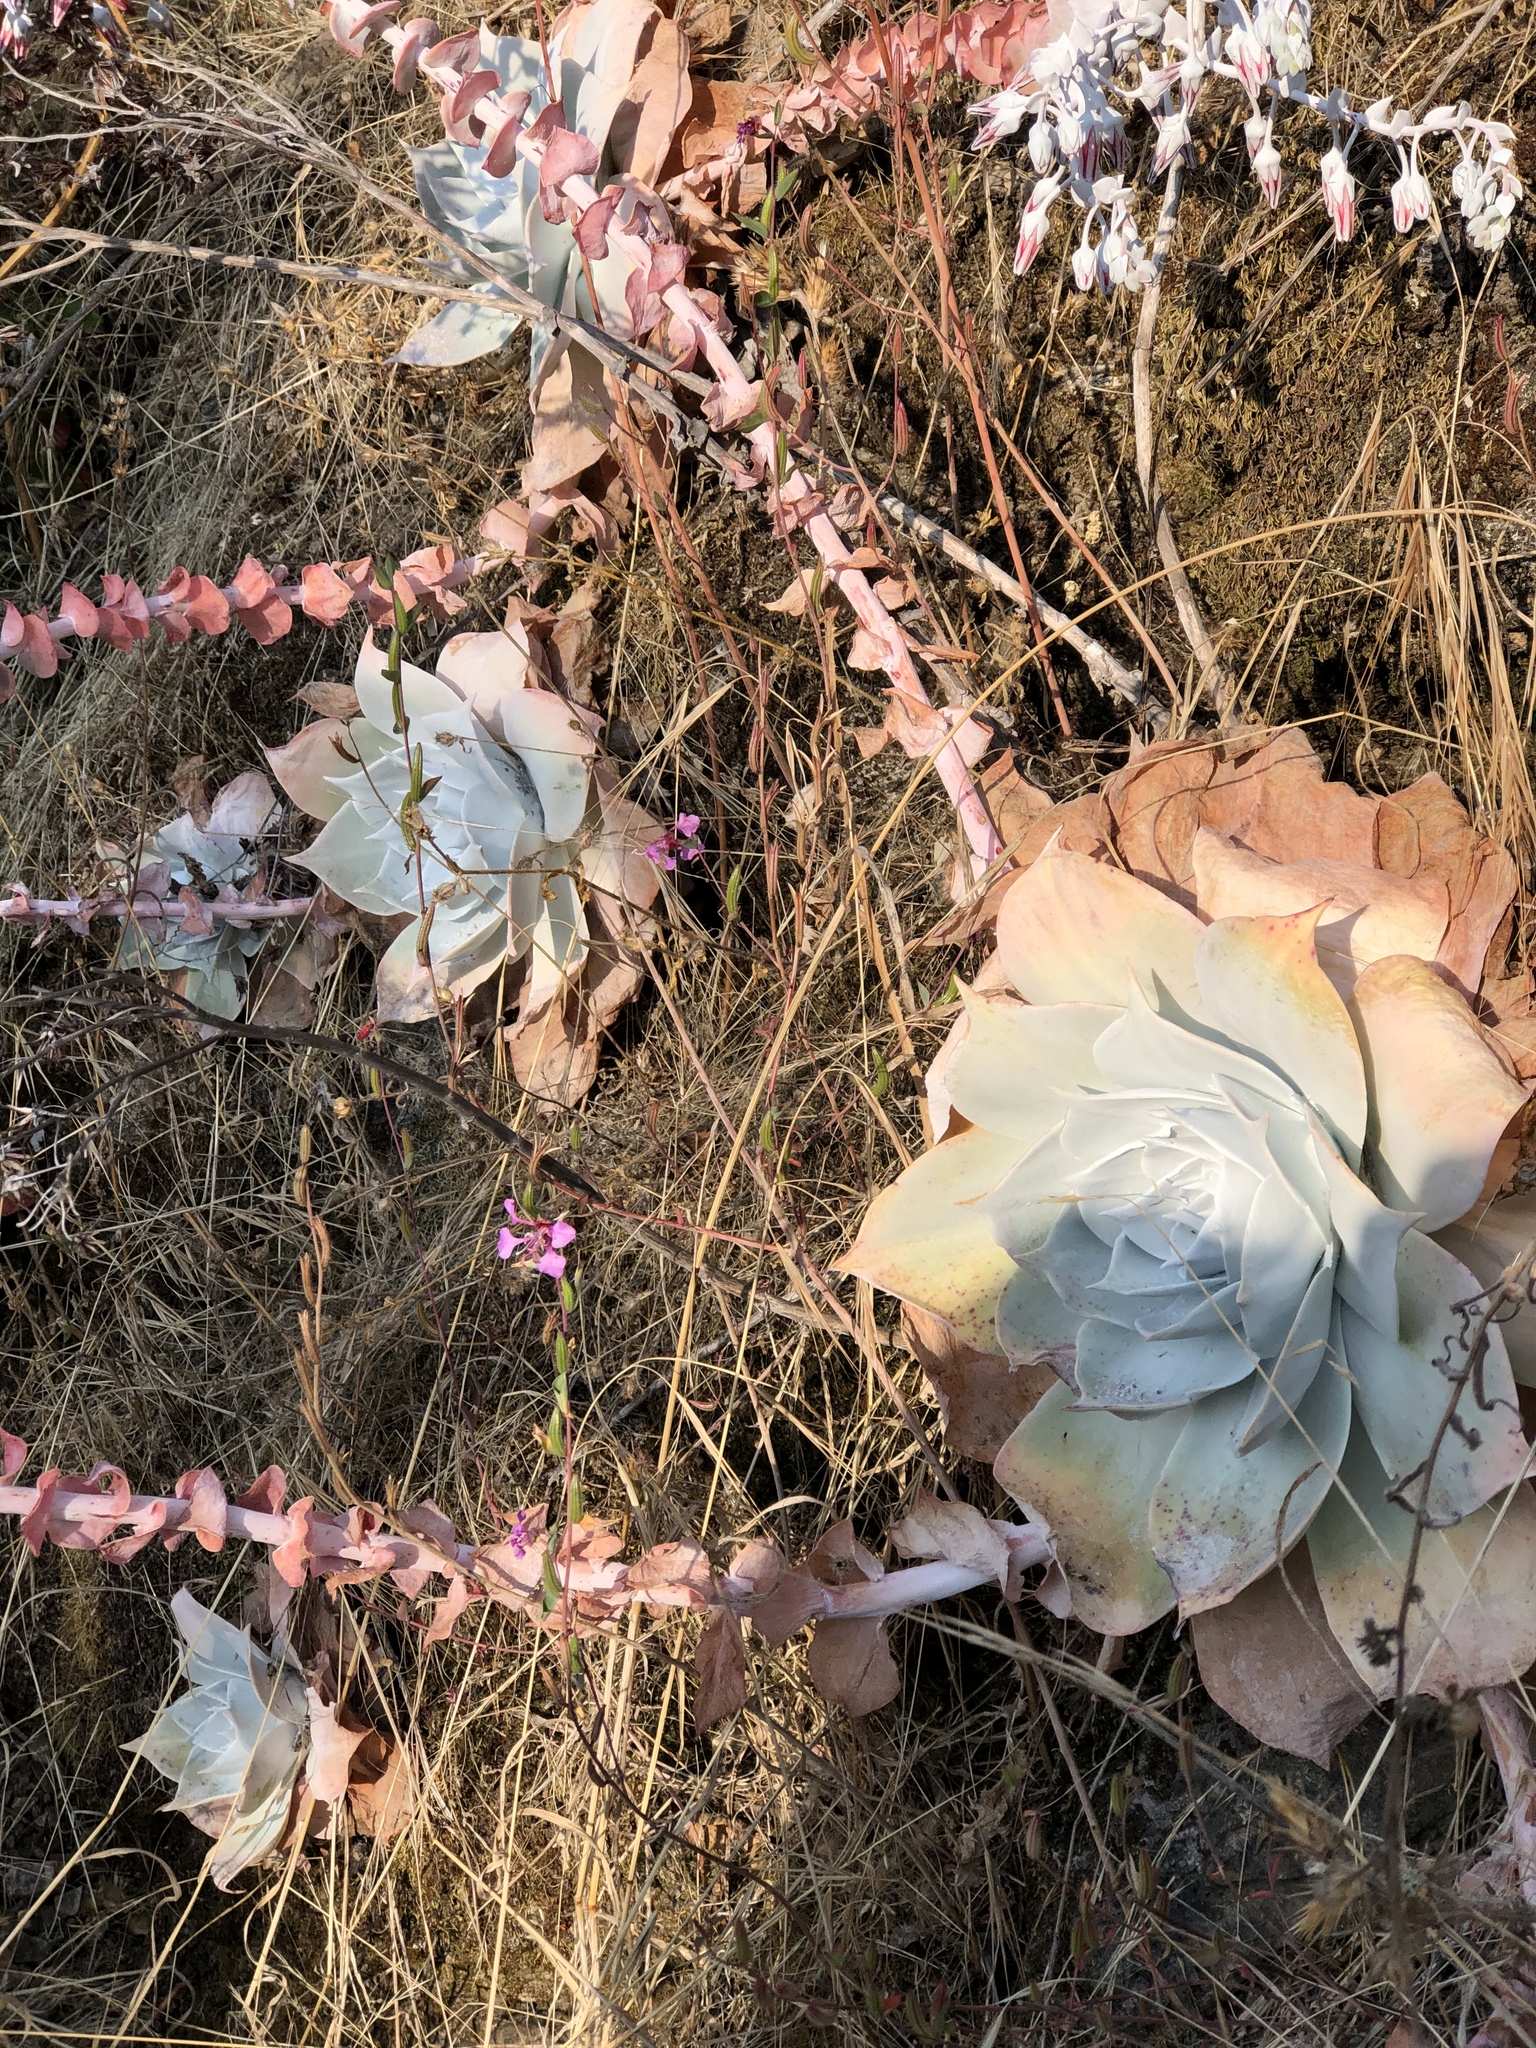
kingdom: Plantae
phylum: Tracheophyta
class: Magnoliopsida
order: Saxifragales
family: Crassulaceae
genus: Dudleya
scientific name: Dudleya pulverulenta
